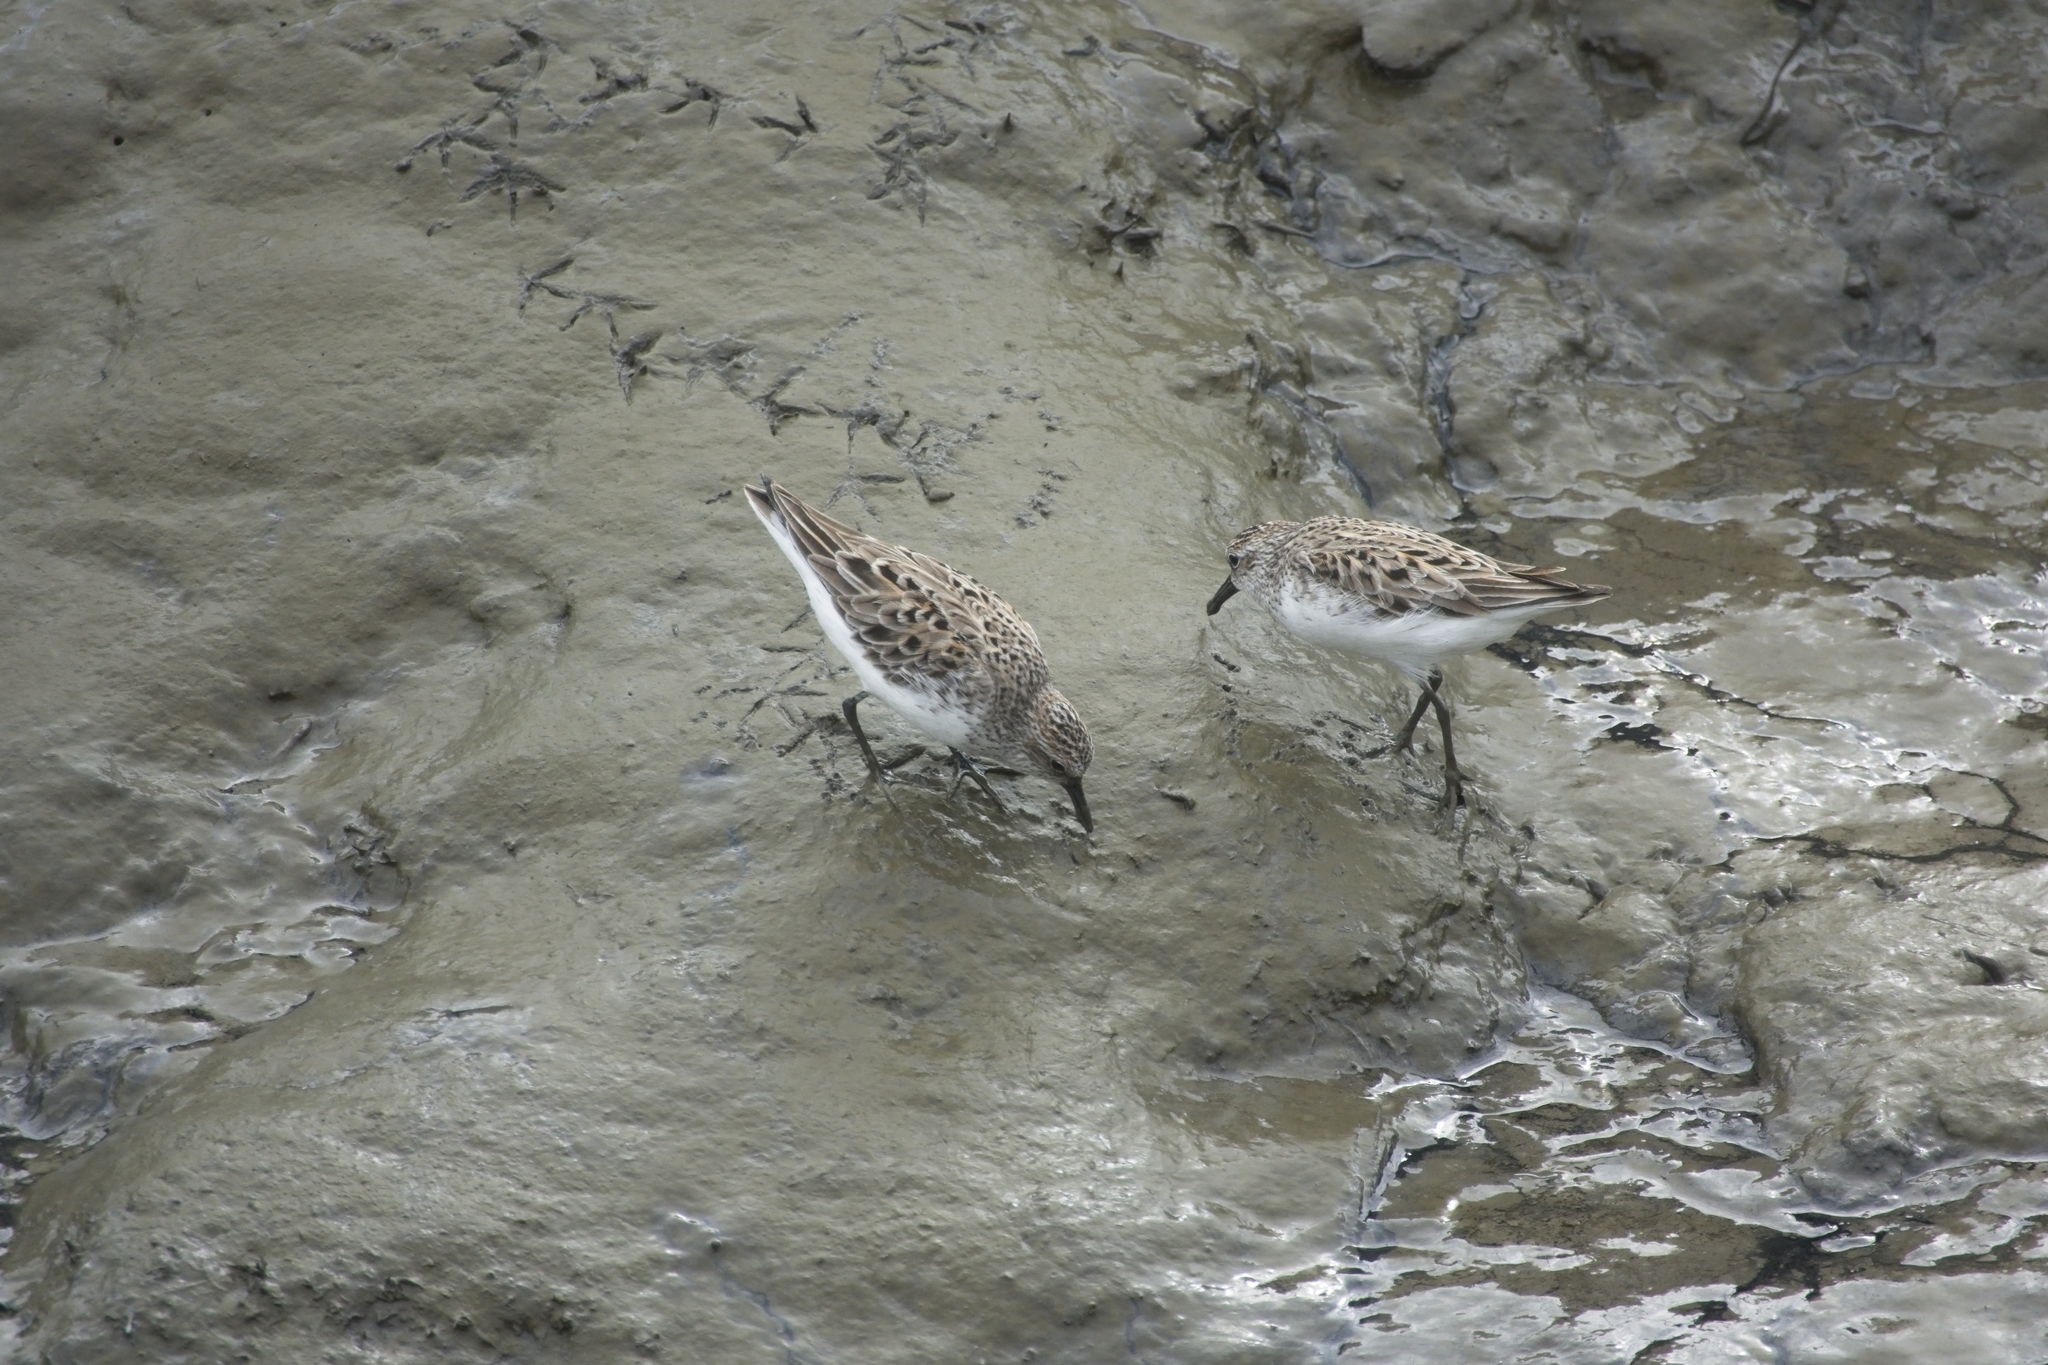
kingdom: Animalia
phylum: Chordata
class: Aves
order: Charadriiformes
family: Scolopacidae
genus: Calidris
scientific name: Calidris pusilla
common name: Semipalmated sandpiper
